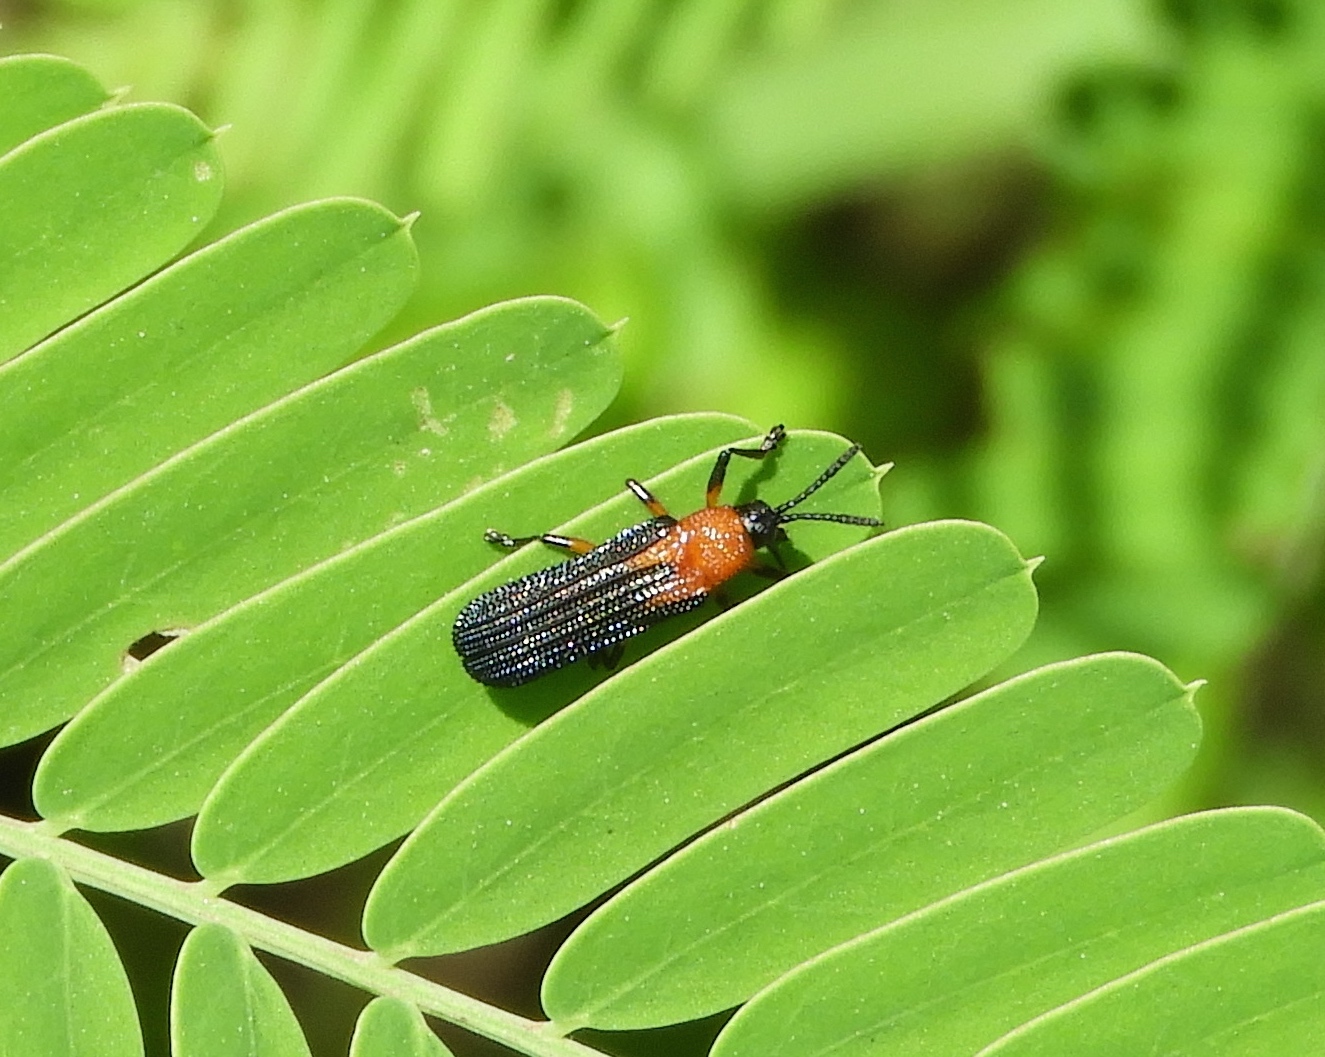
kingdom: Animalia
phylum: Arthropoda
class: Insecta
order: Coleoptera
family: Chrysomelidae
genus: Chalepus
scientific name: Chalepus bellulus
